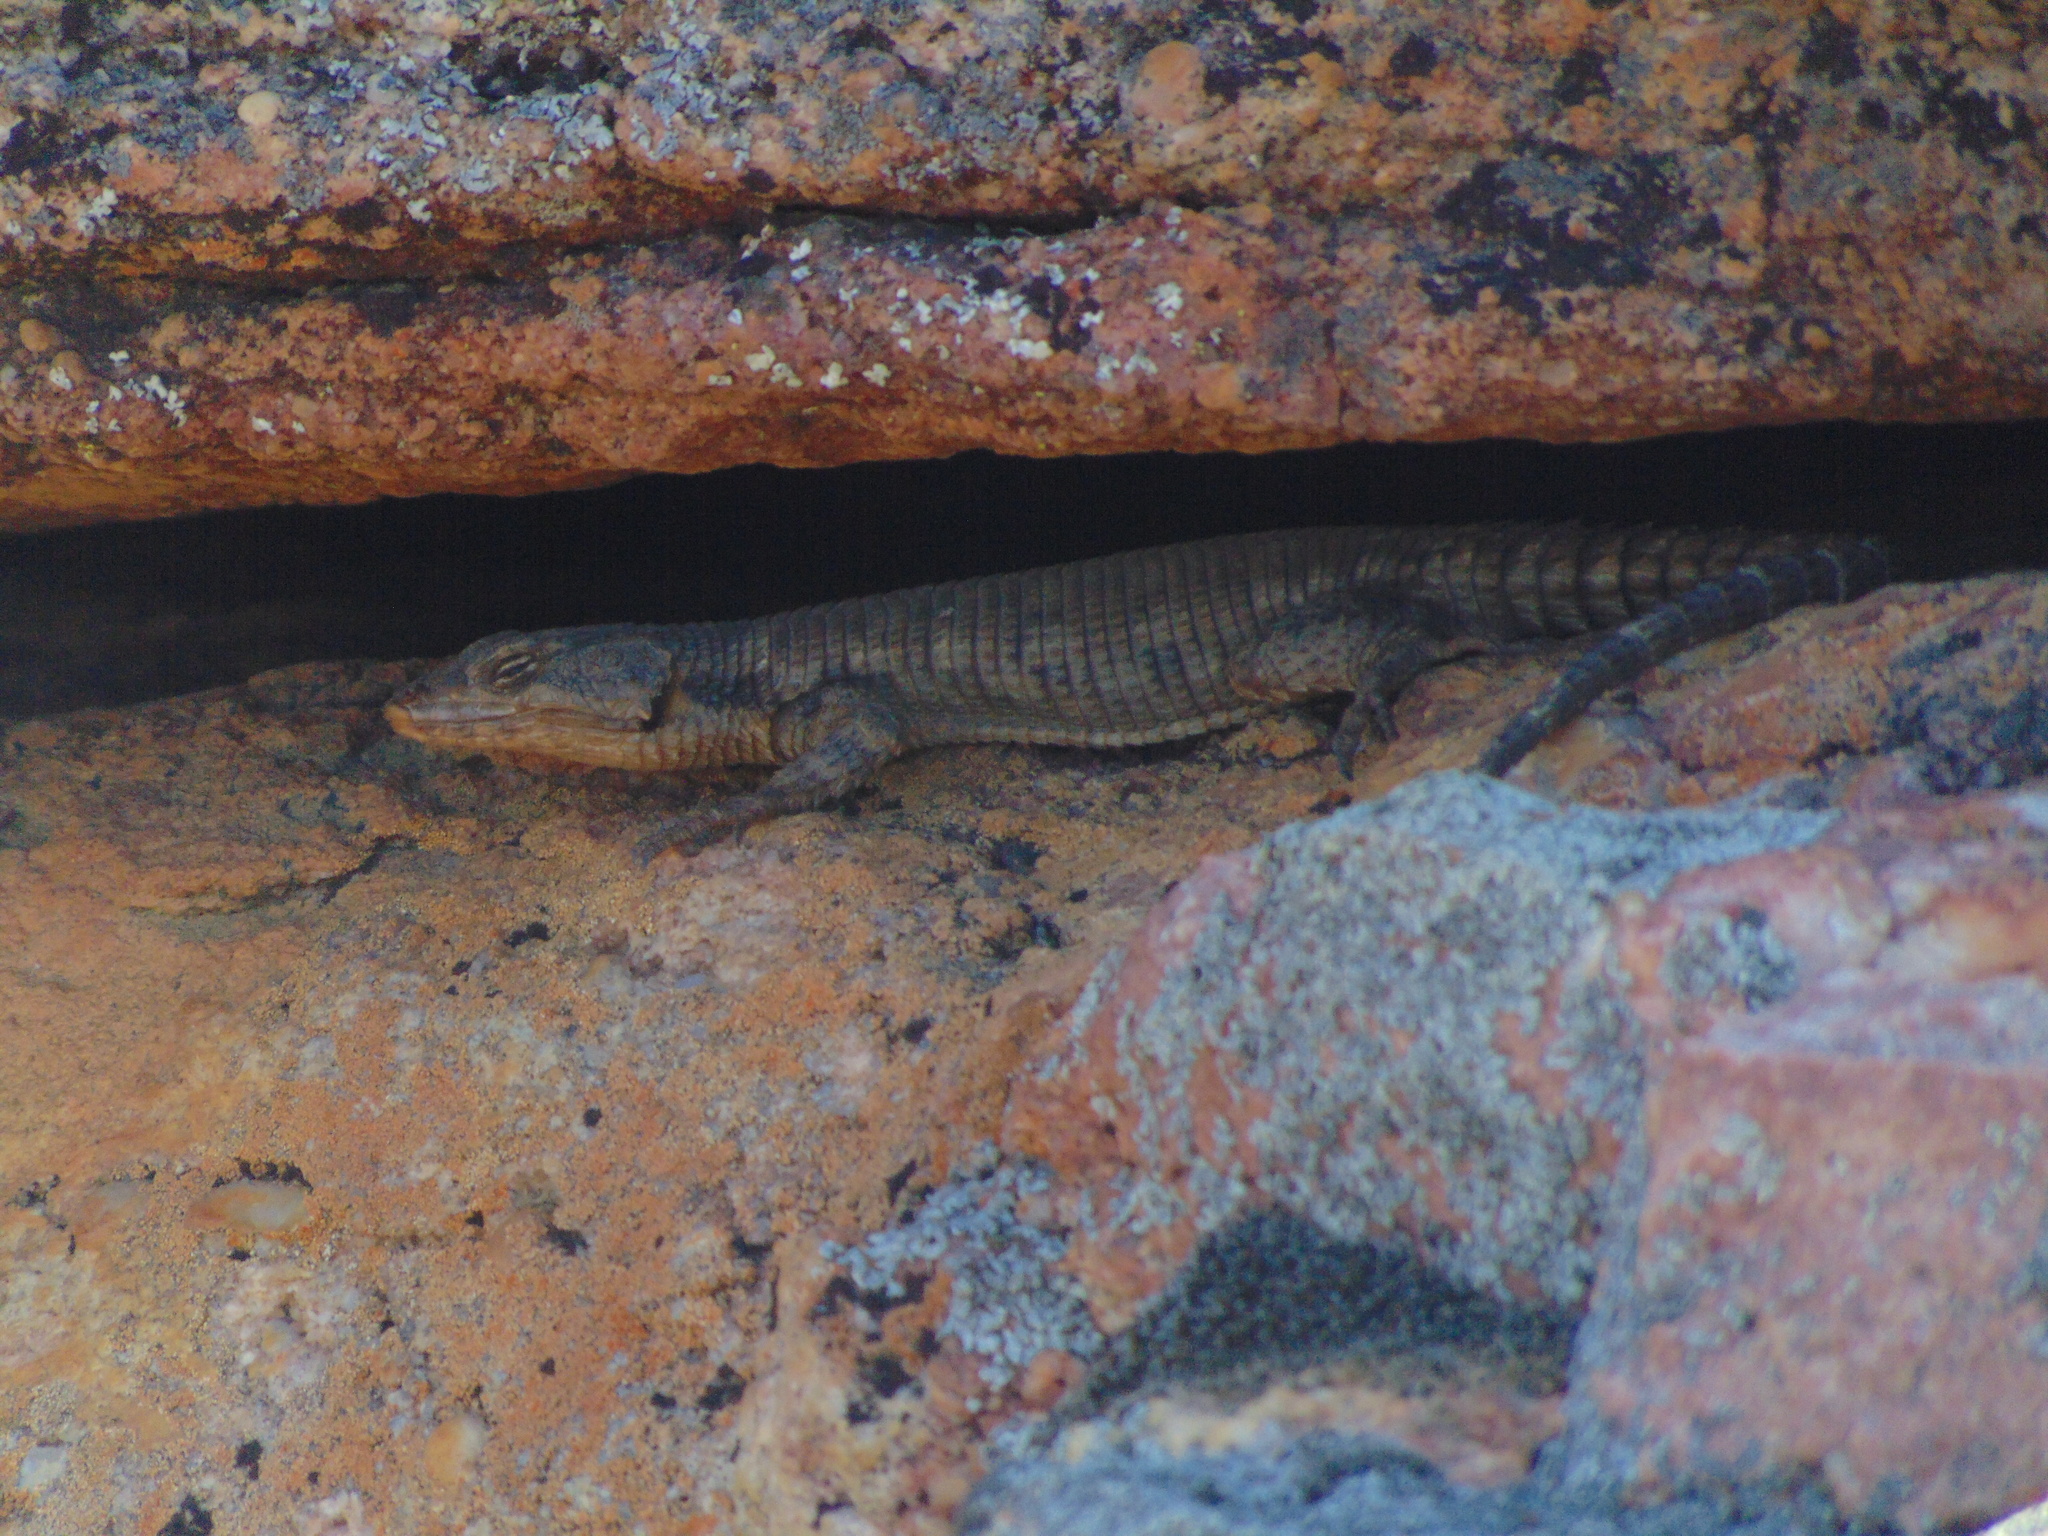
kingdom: Animalia
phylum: Chordata
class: Squamata
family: Cordylidae
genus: Karusasaurus
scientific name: Karusasaurus polyzonus
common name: Karoo girdled lizard
